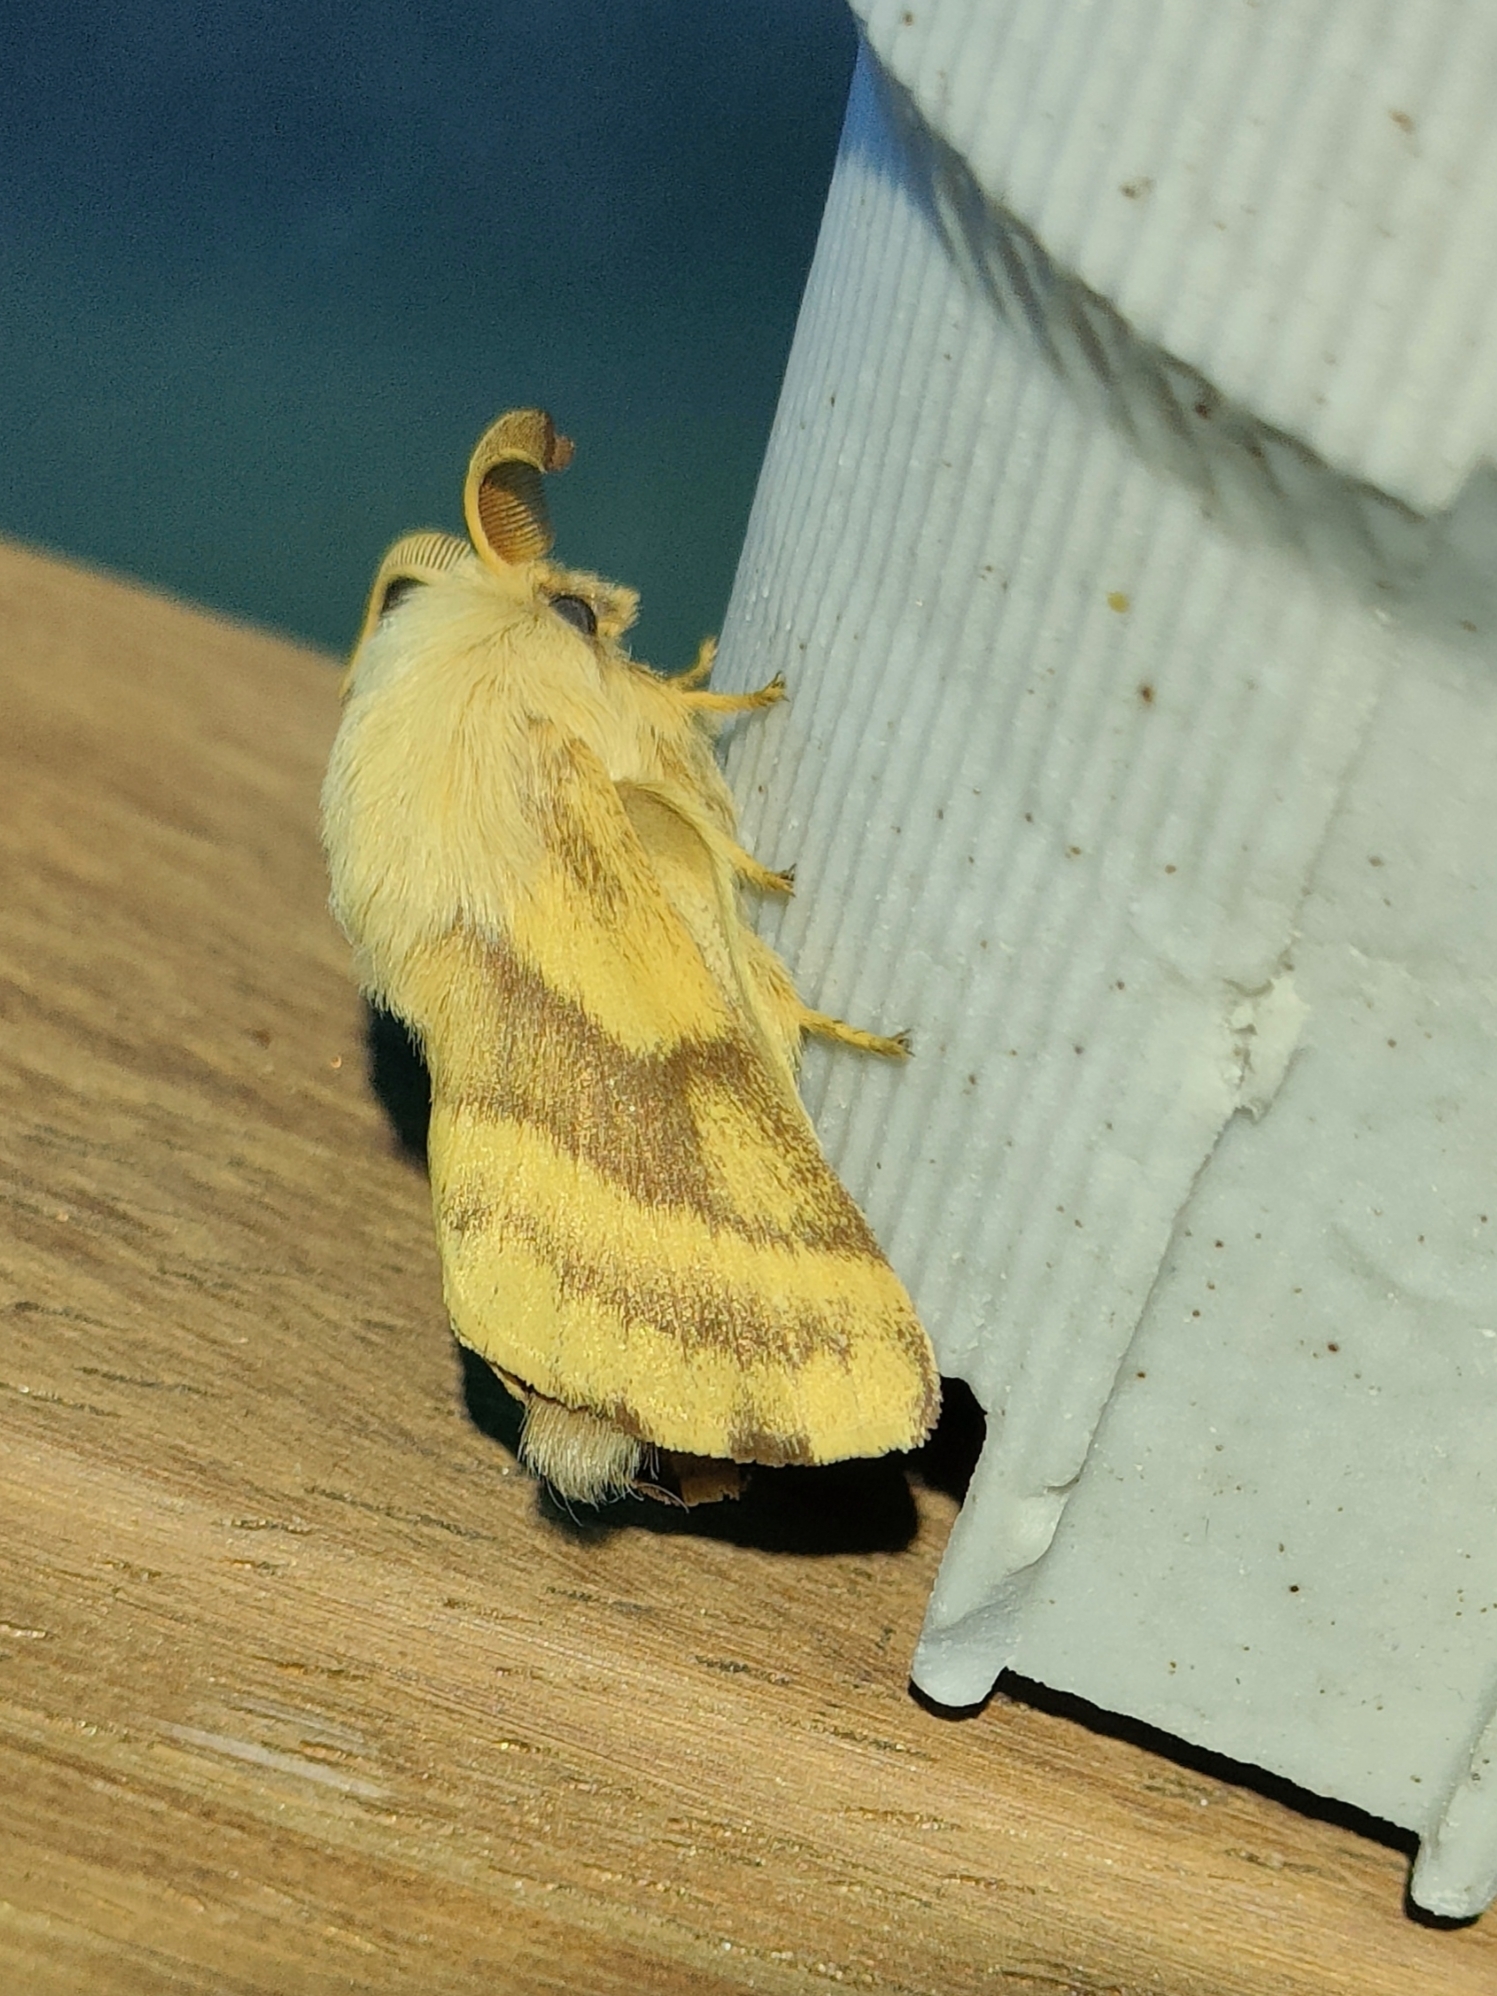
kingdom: Animalia
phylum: Arthropoda
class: Insecta
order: Lepidoptera
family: Lasiocampidae
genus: Malacosoma
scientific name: Malacosoma castrense
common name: Ground lackey
